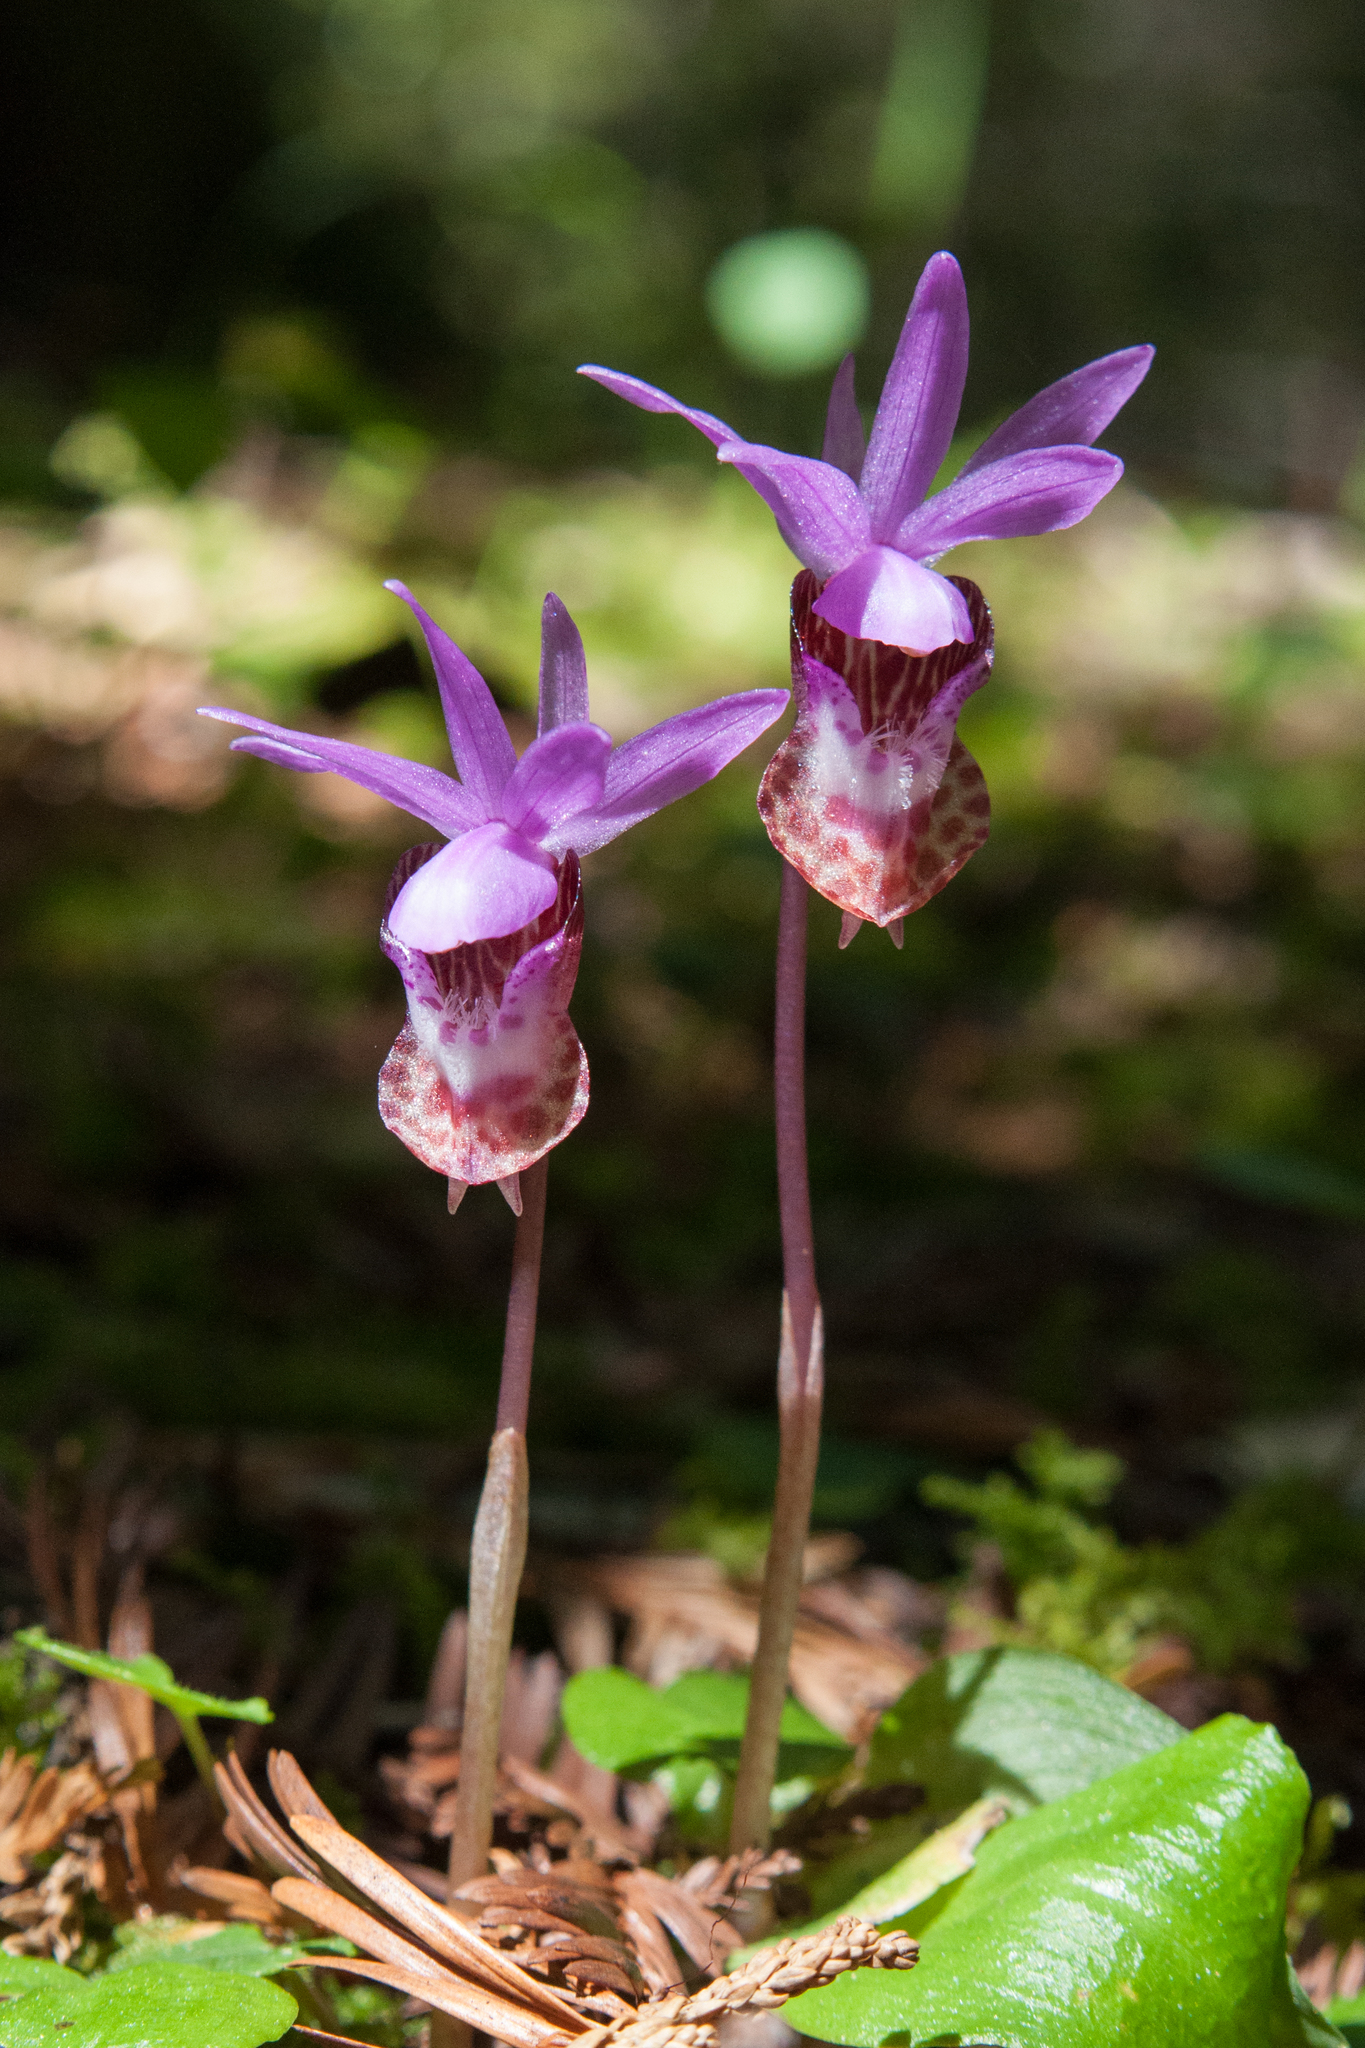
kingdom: Plantae
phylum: Tracheophyta
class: Liliopsida
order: Asparagales
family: Orchidaceae
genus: Calypso
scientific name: Calypso bulbosa
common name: Calypso
